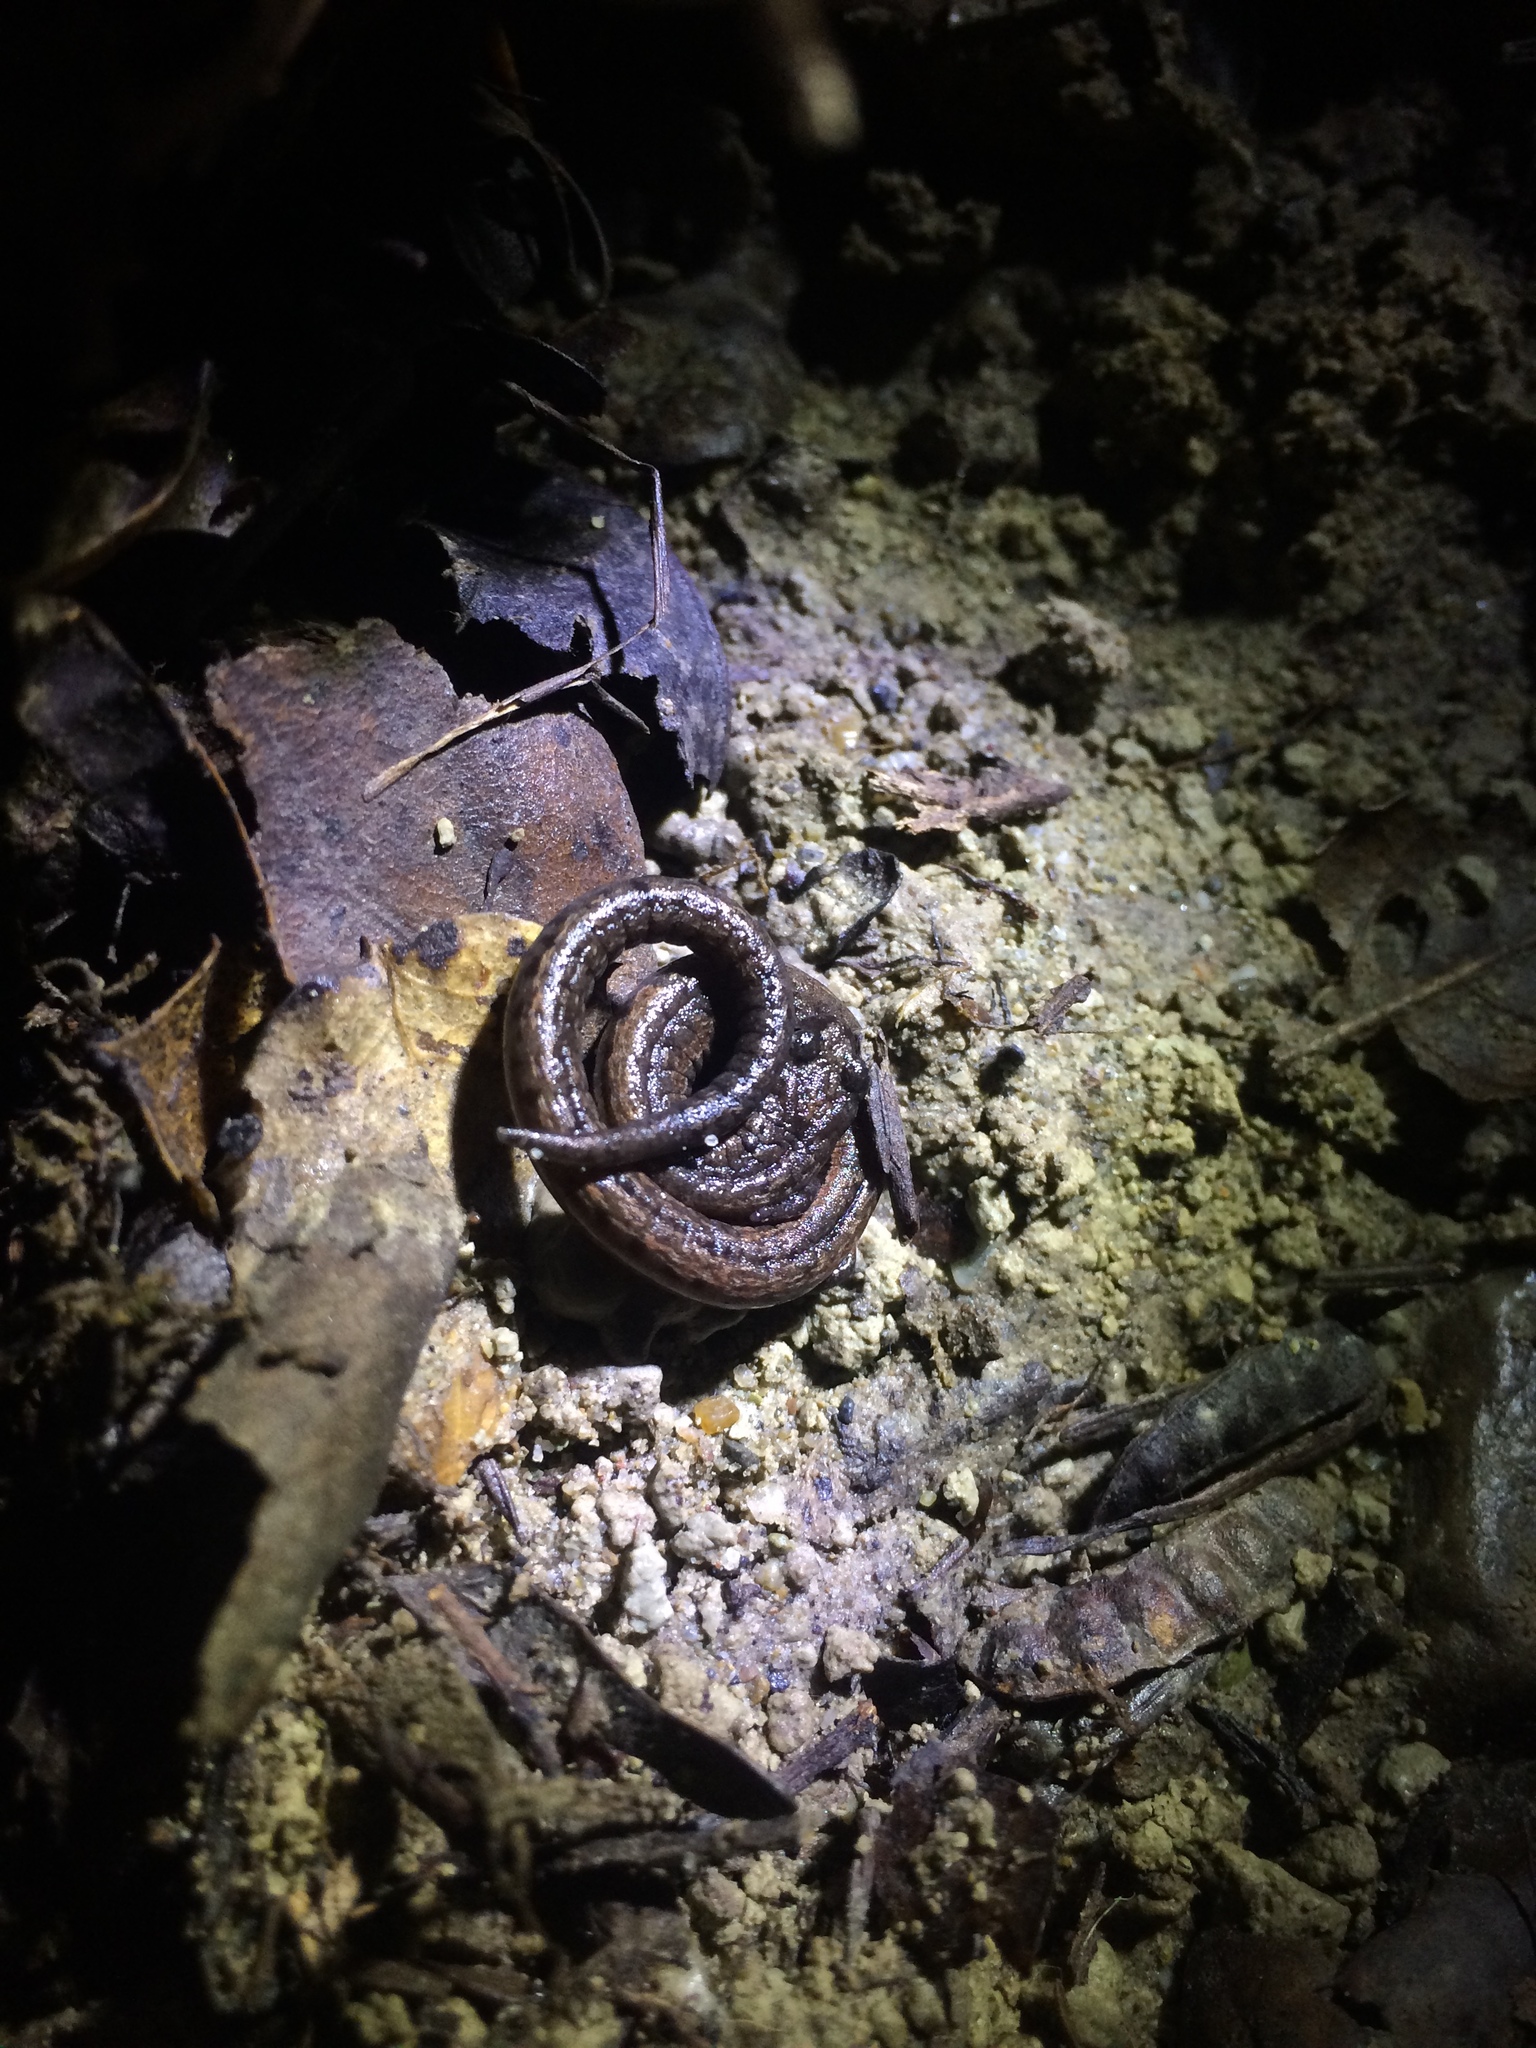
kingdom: Animalia
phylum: Chordata
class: Amphibia
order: Caudata
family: Plethodontidae
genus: Batrachoseps
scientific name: Batrachoseps attenuatus
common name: California slender salamander
